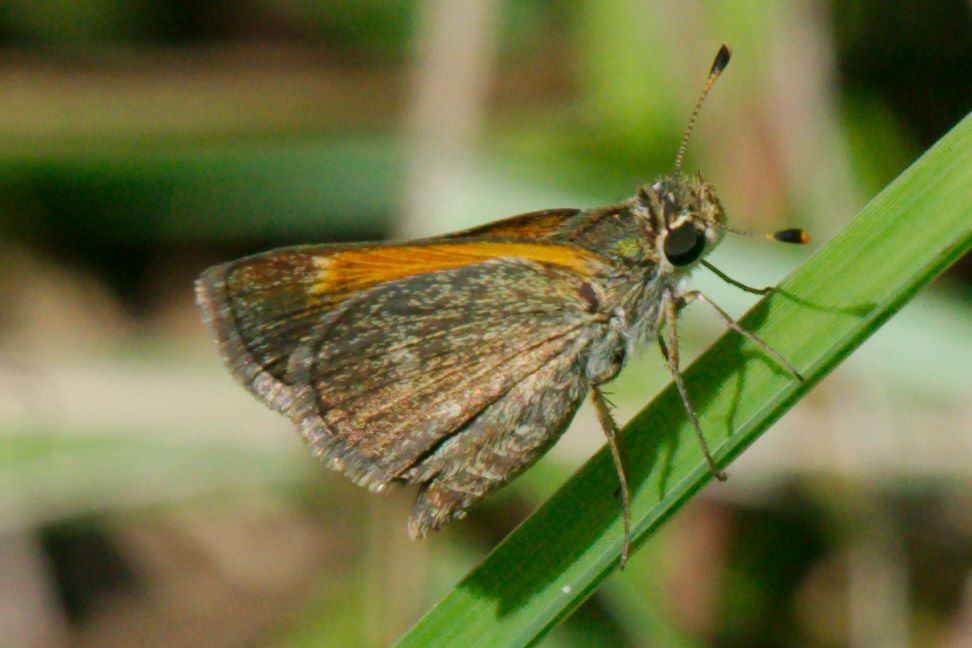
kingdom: Animalia
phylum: Arthropoda
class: Insecta
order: Lepidoptera
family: Hesperiidae
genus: Polites
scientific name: Polites baracoa
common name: Baracoa skipper
